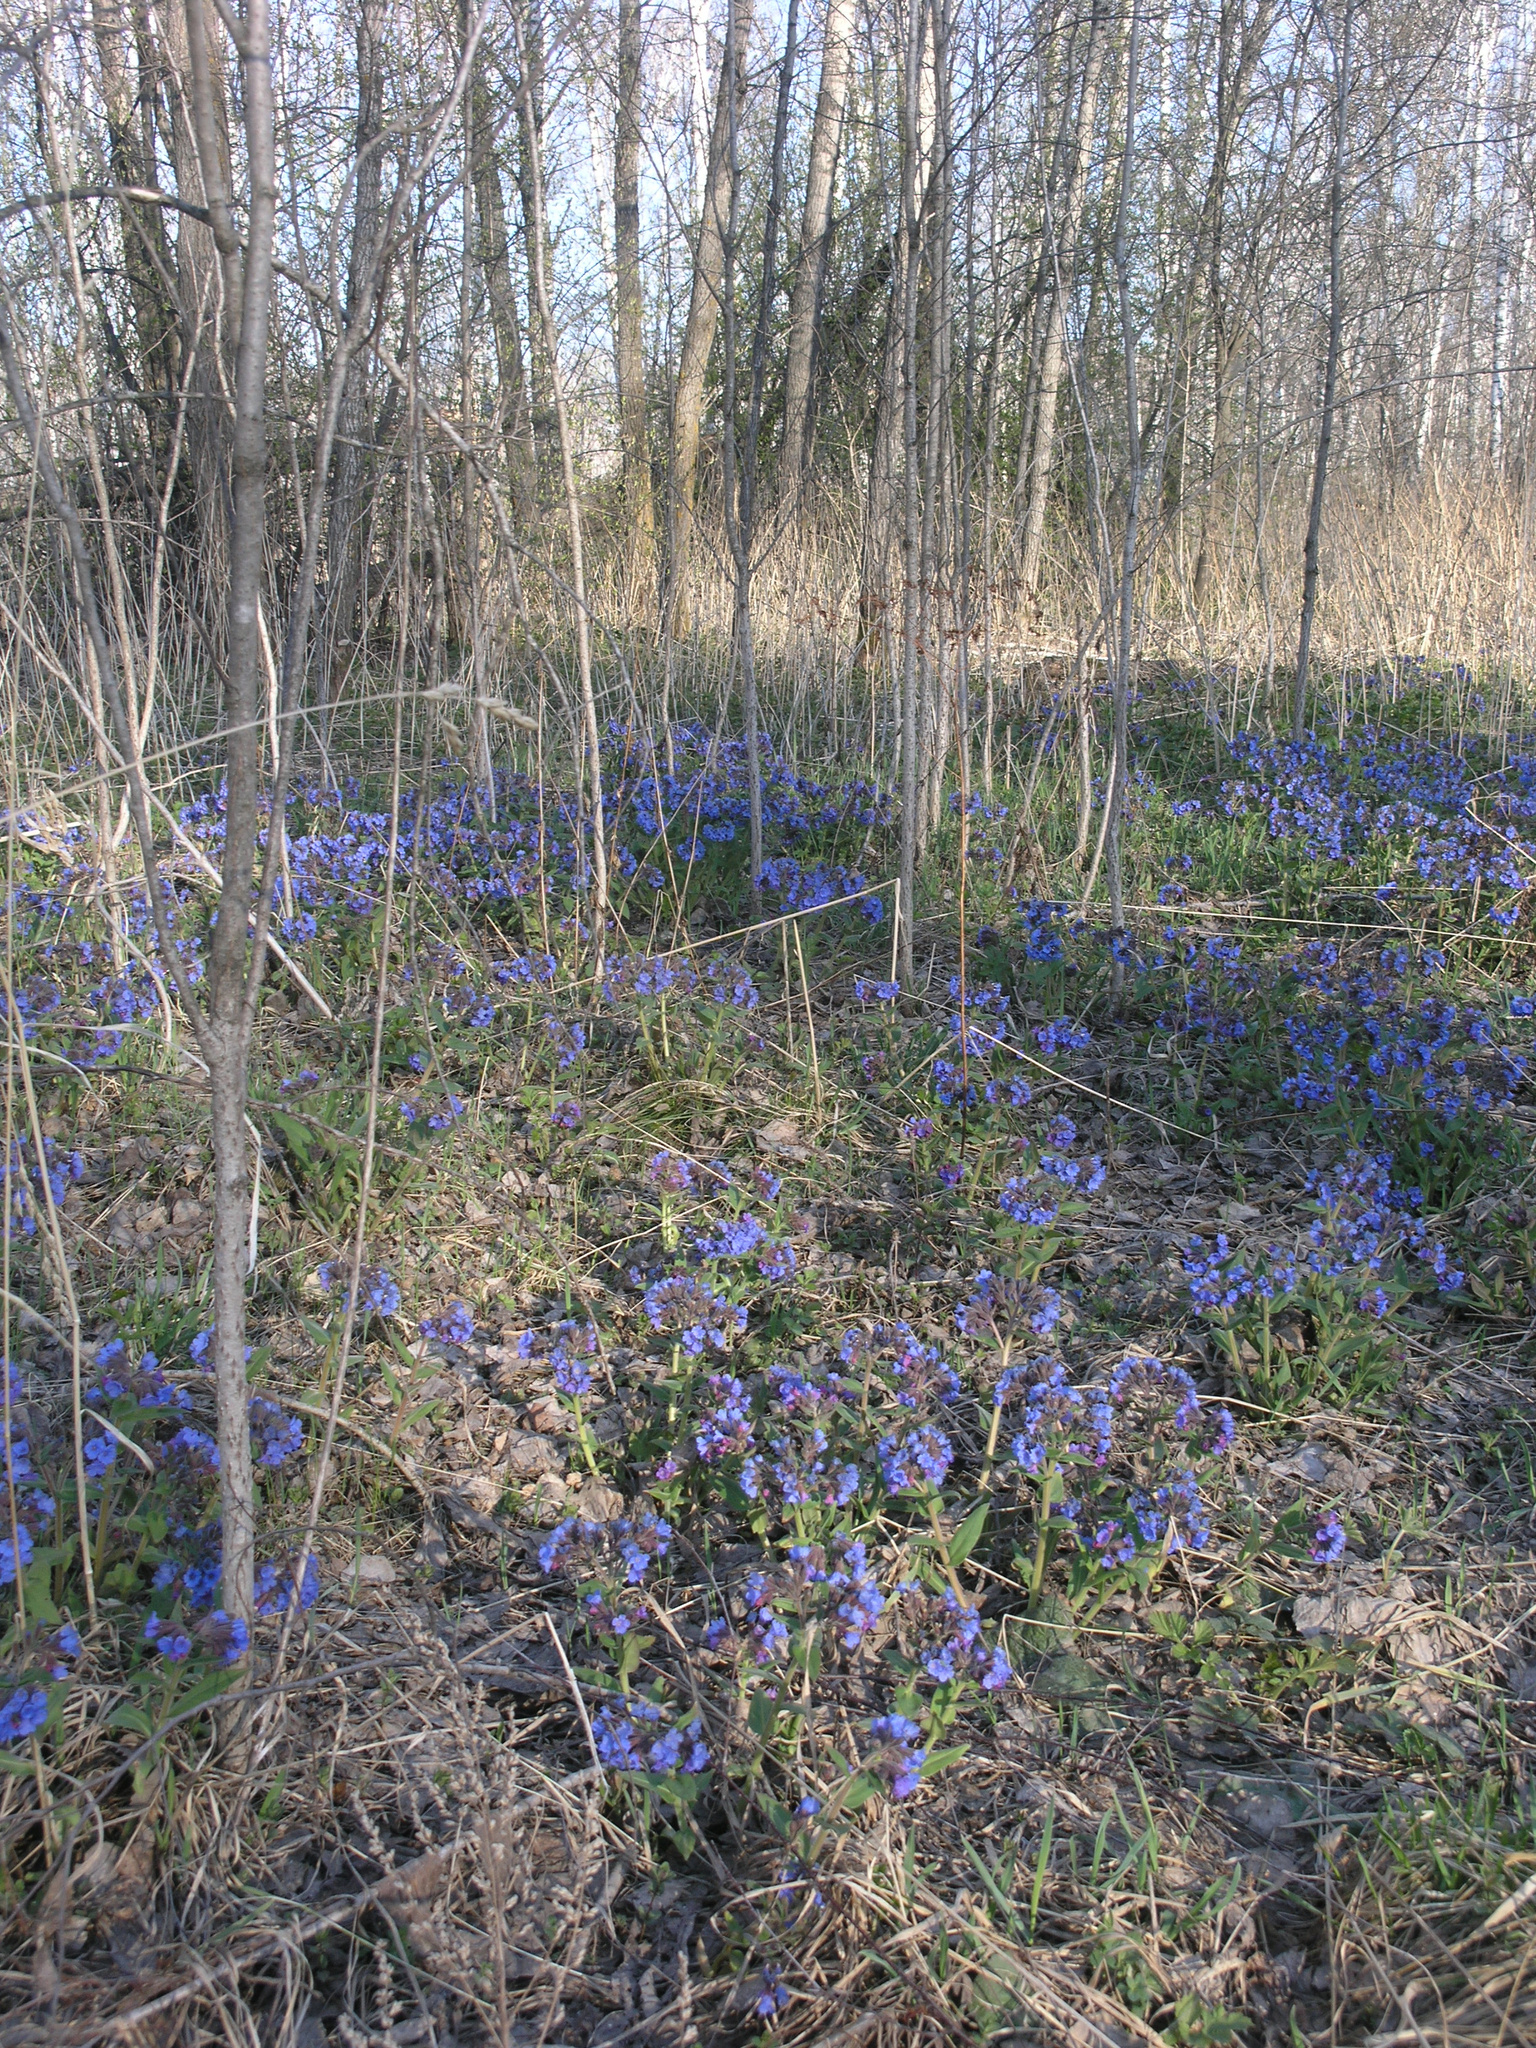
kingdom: Plantae
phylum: Tracheophyta
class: Magnoliopsida
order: Boraginales
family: Boraginaceae
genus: Pulmonaria
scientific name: Pulmonaria mollis
